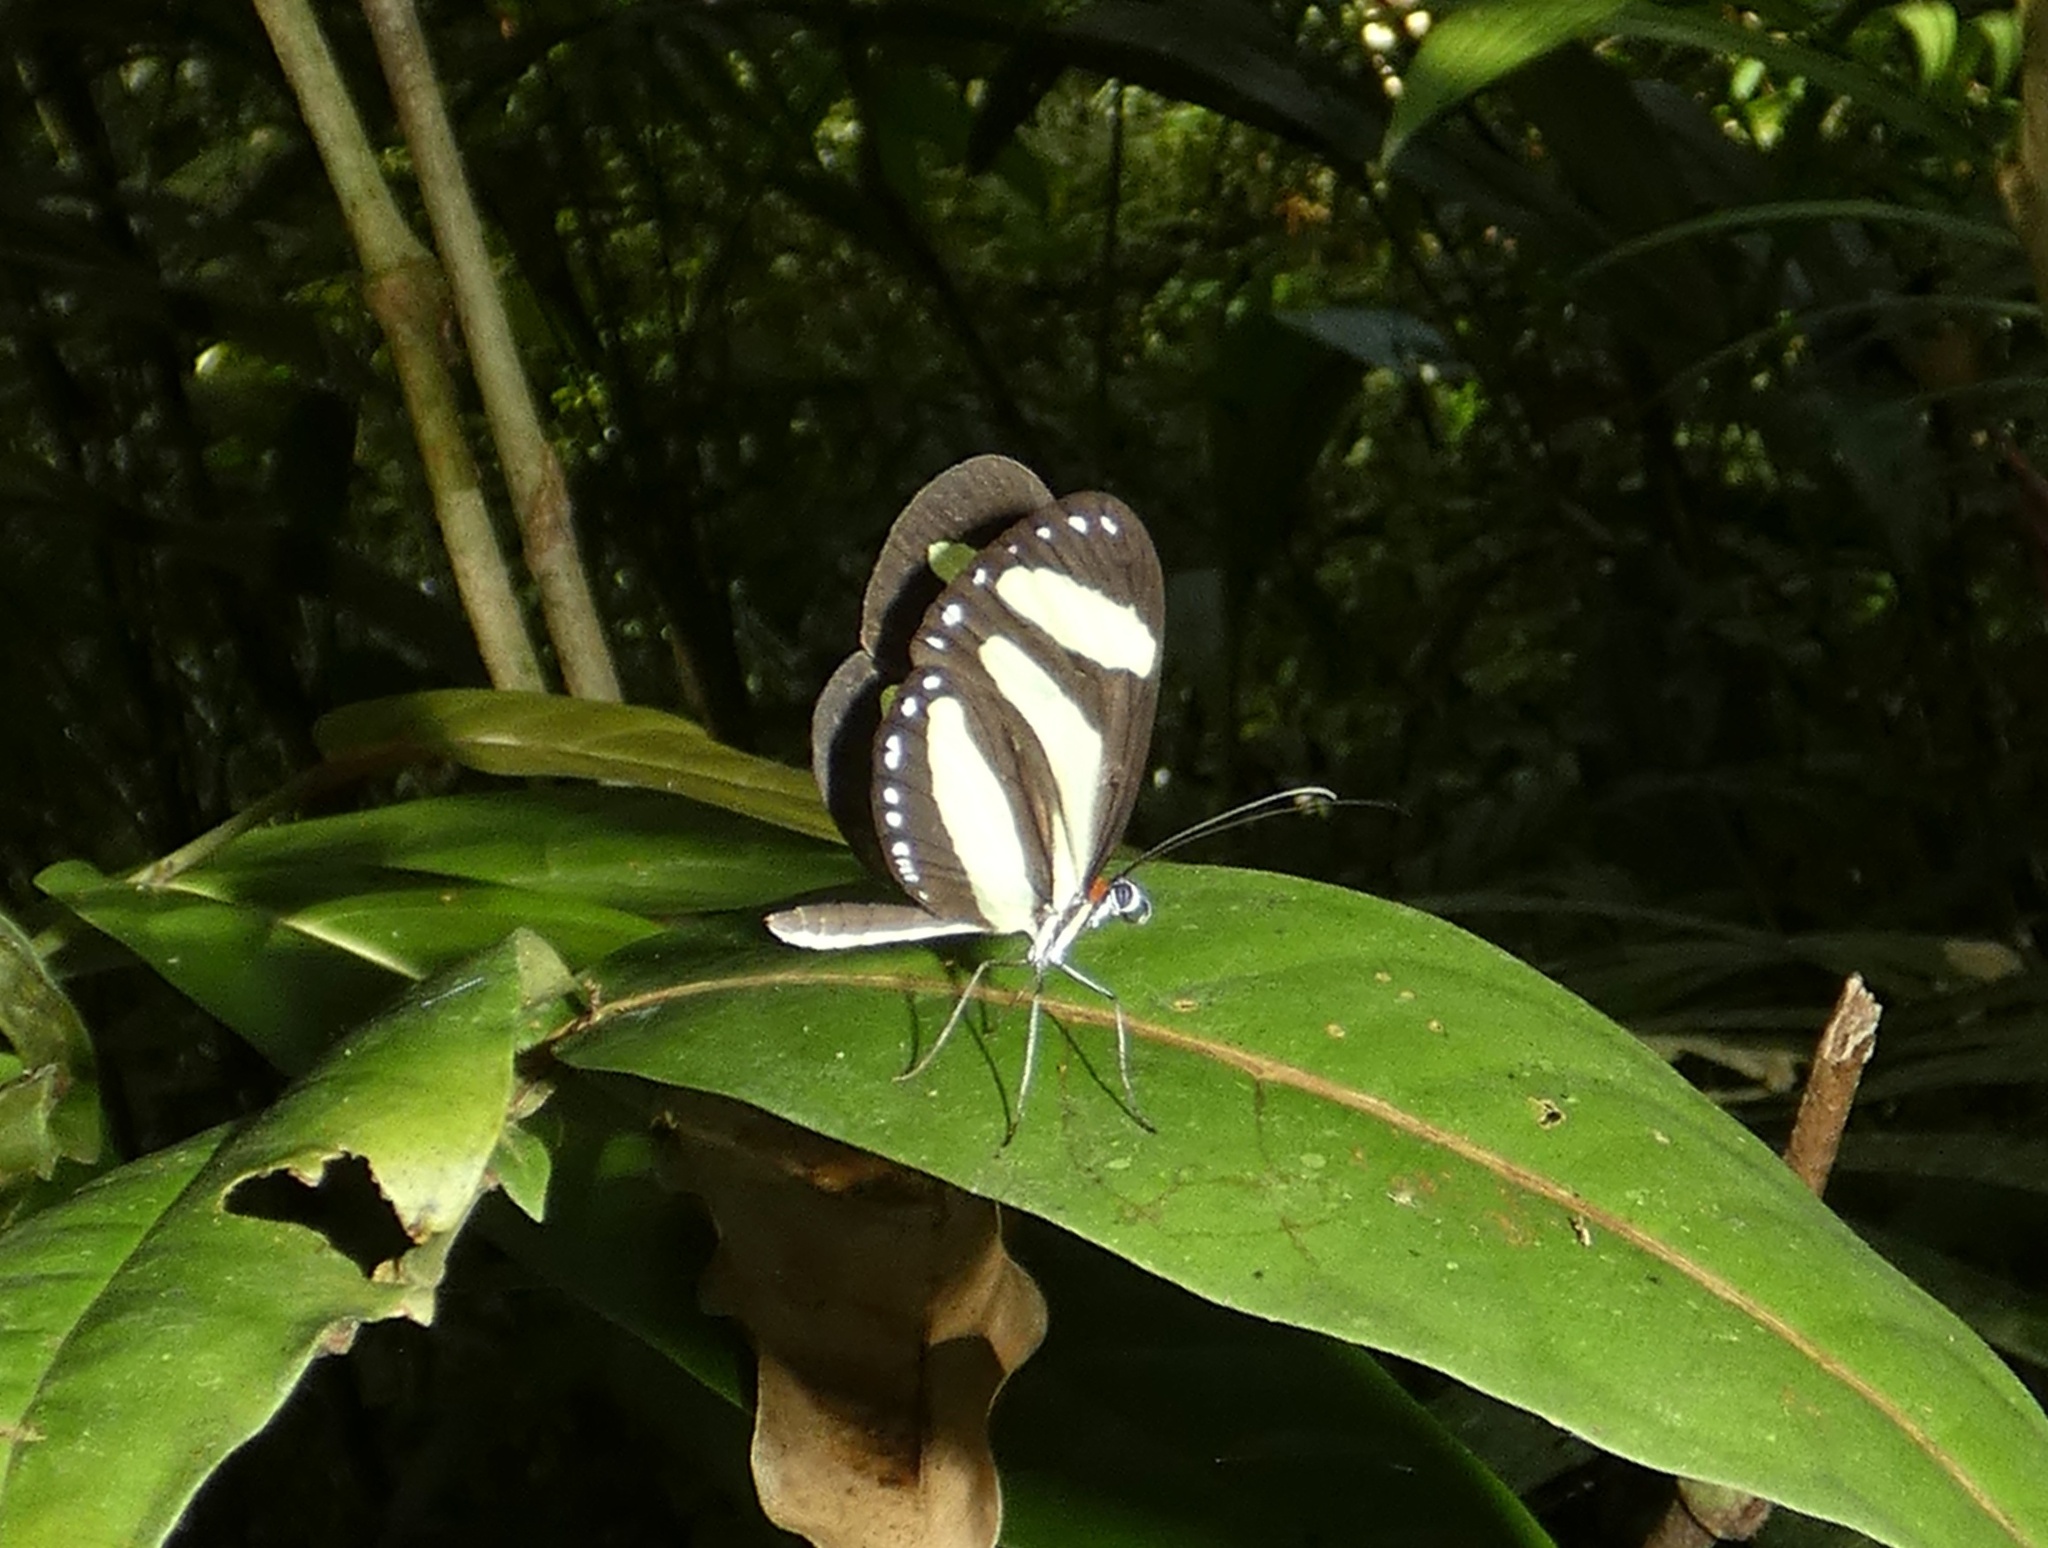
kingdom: Animalia
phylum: Arthropoda
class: Insecta
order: Lepidoptera
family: Nymphalidae
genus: Aeria
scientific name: Aeria eurimedia
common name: Banded tigerwing
